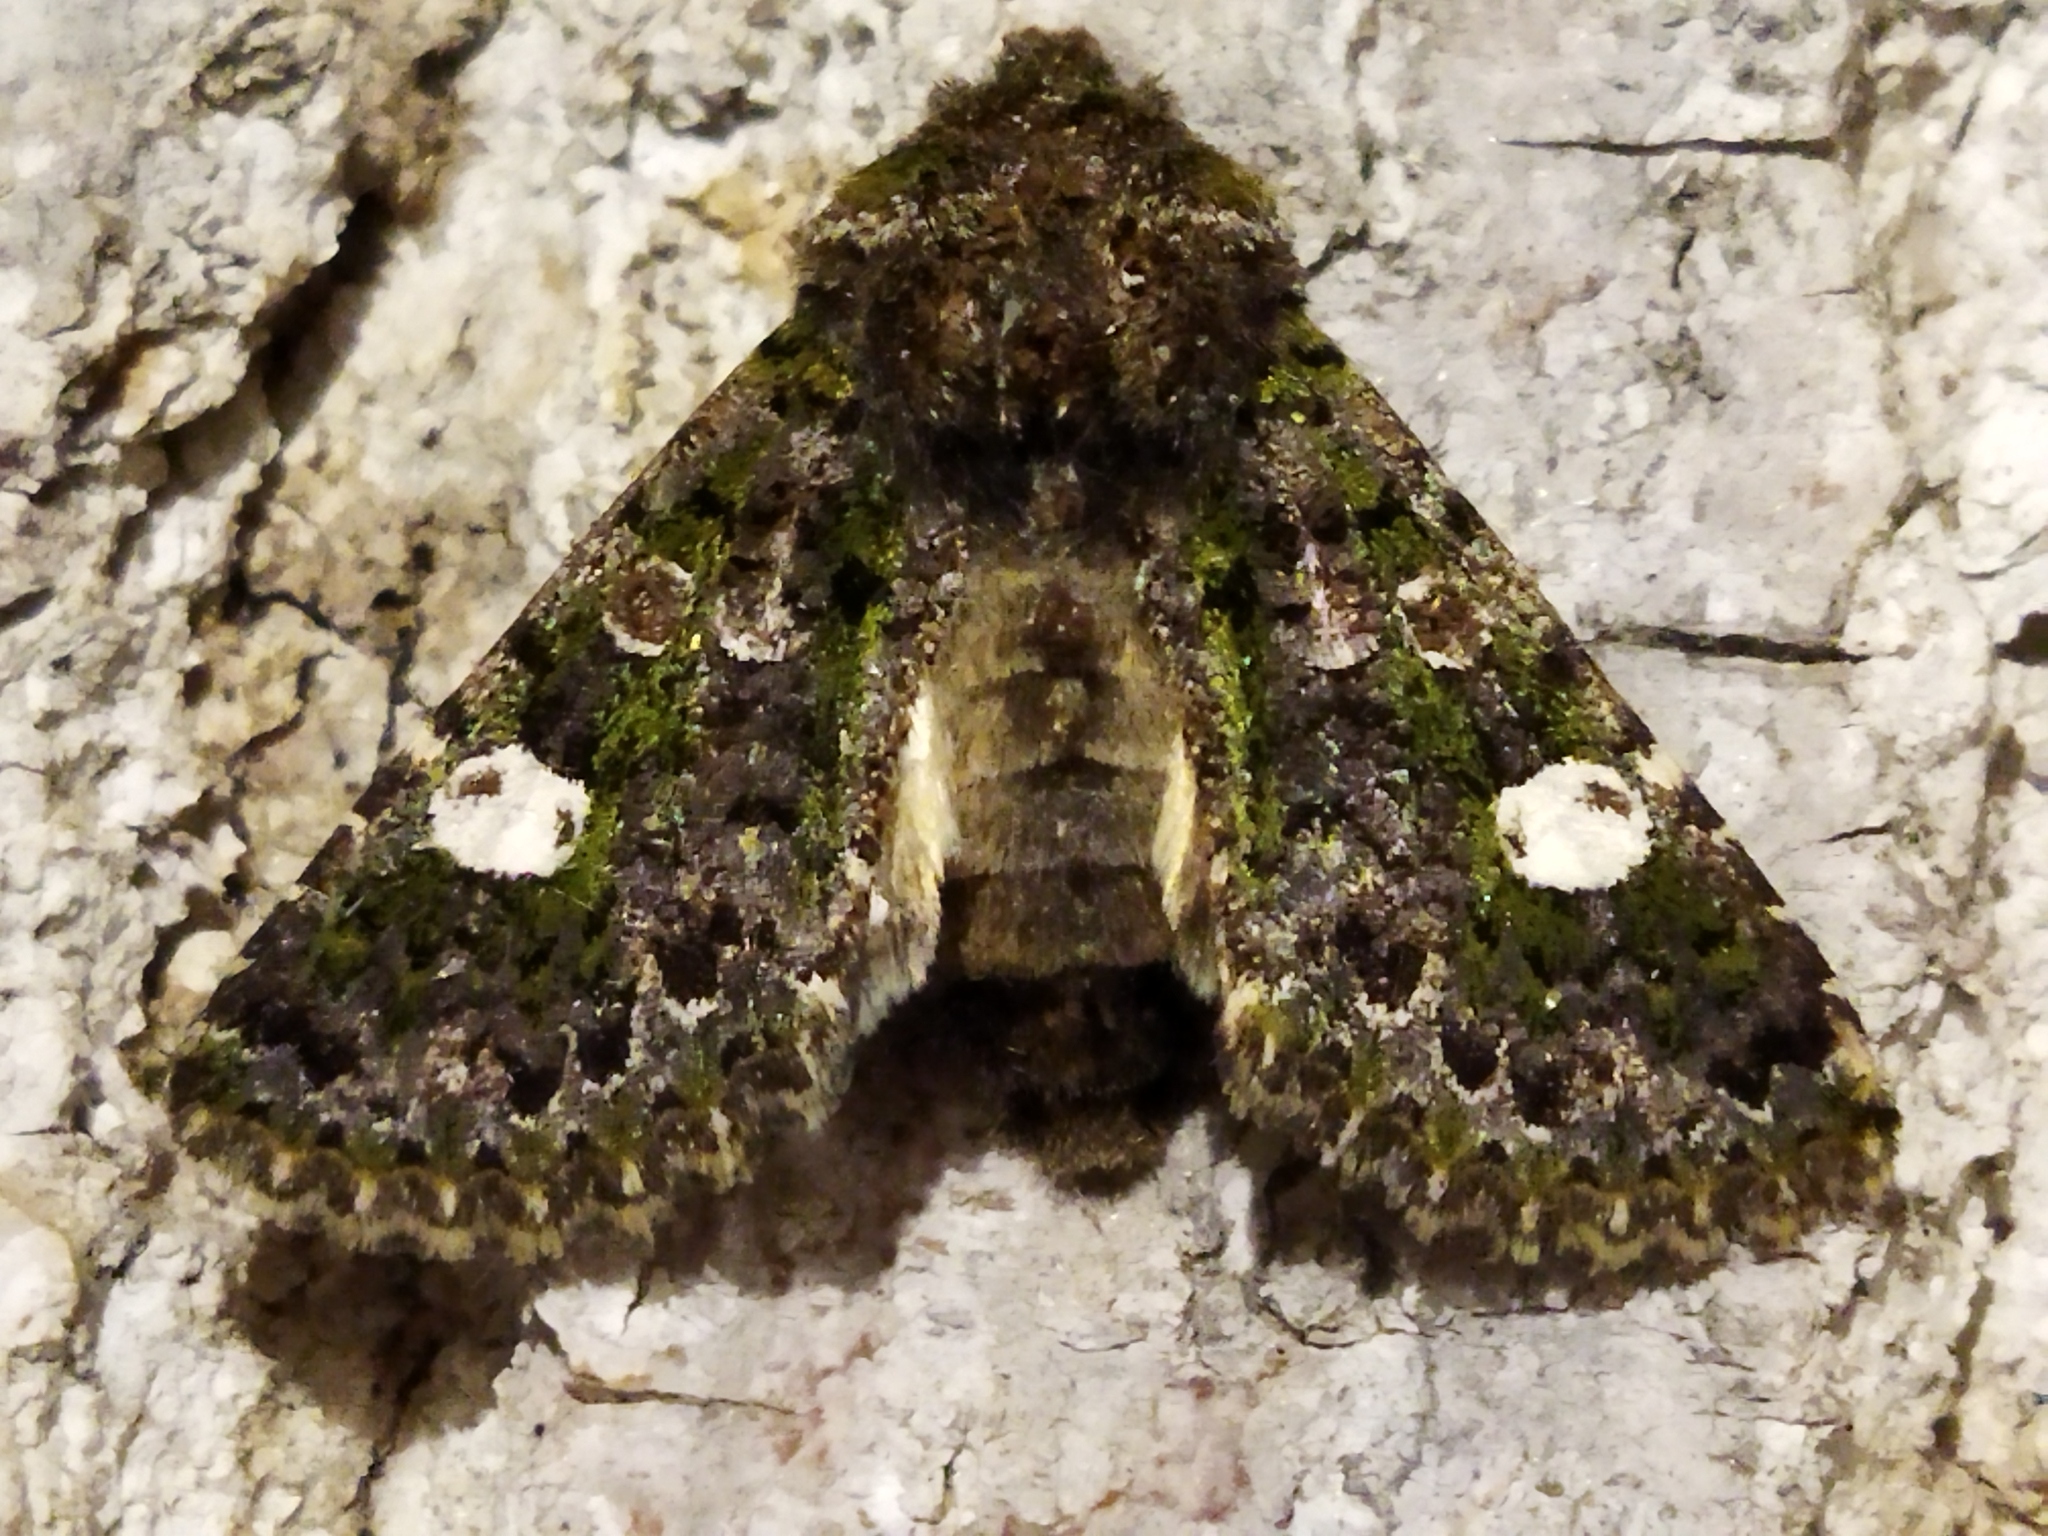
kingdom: Animalia
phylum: Arthropoda
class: Insecta
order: Lepidoptera
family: Noctuidae
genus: Valeria
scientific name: Valeria oleagina
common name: Green-brindled dot
